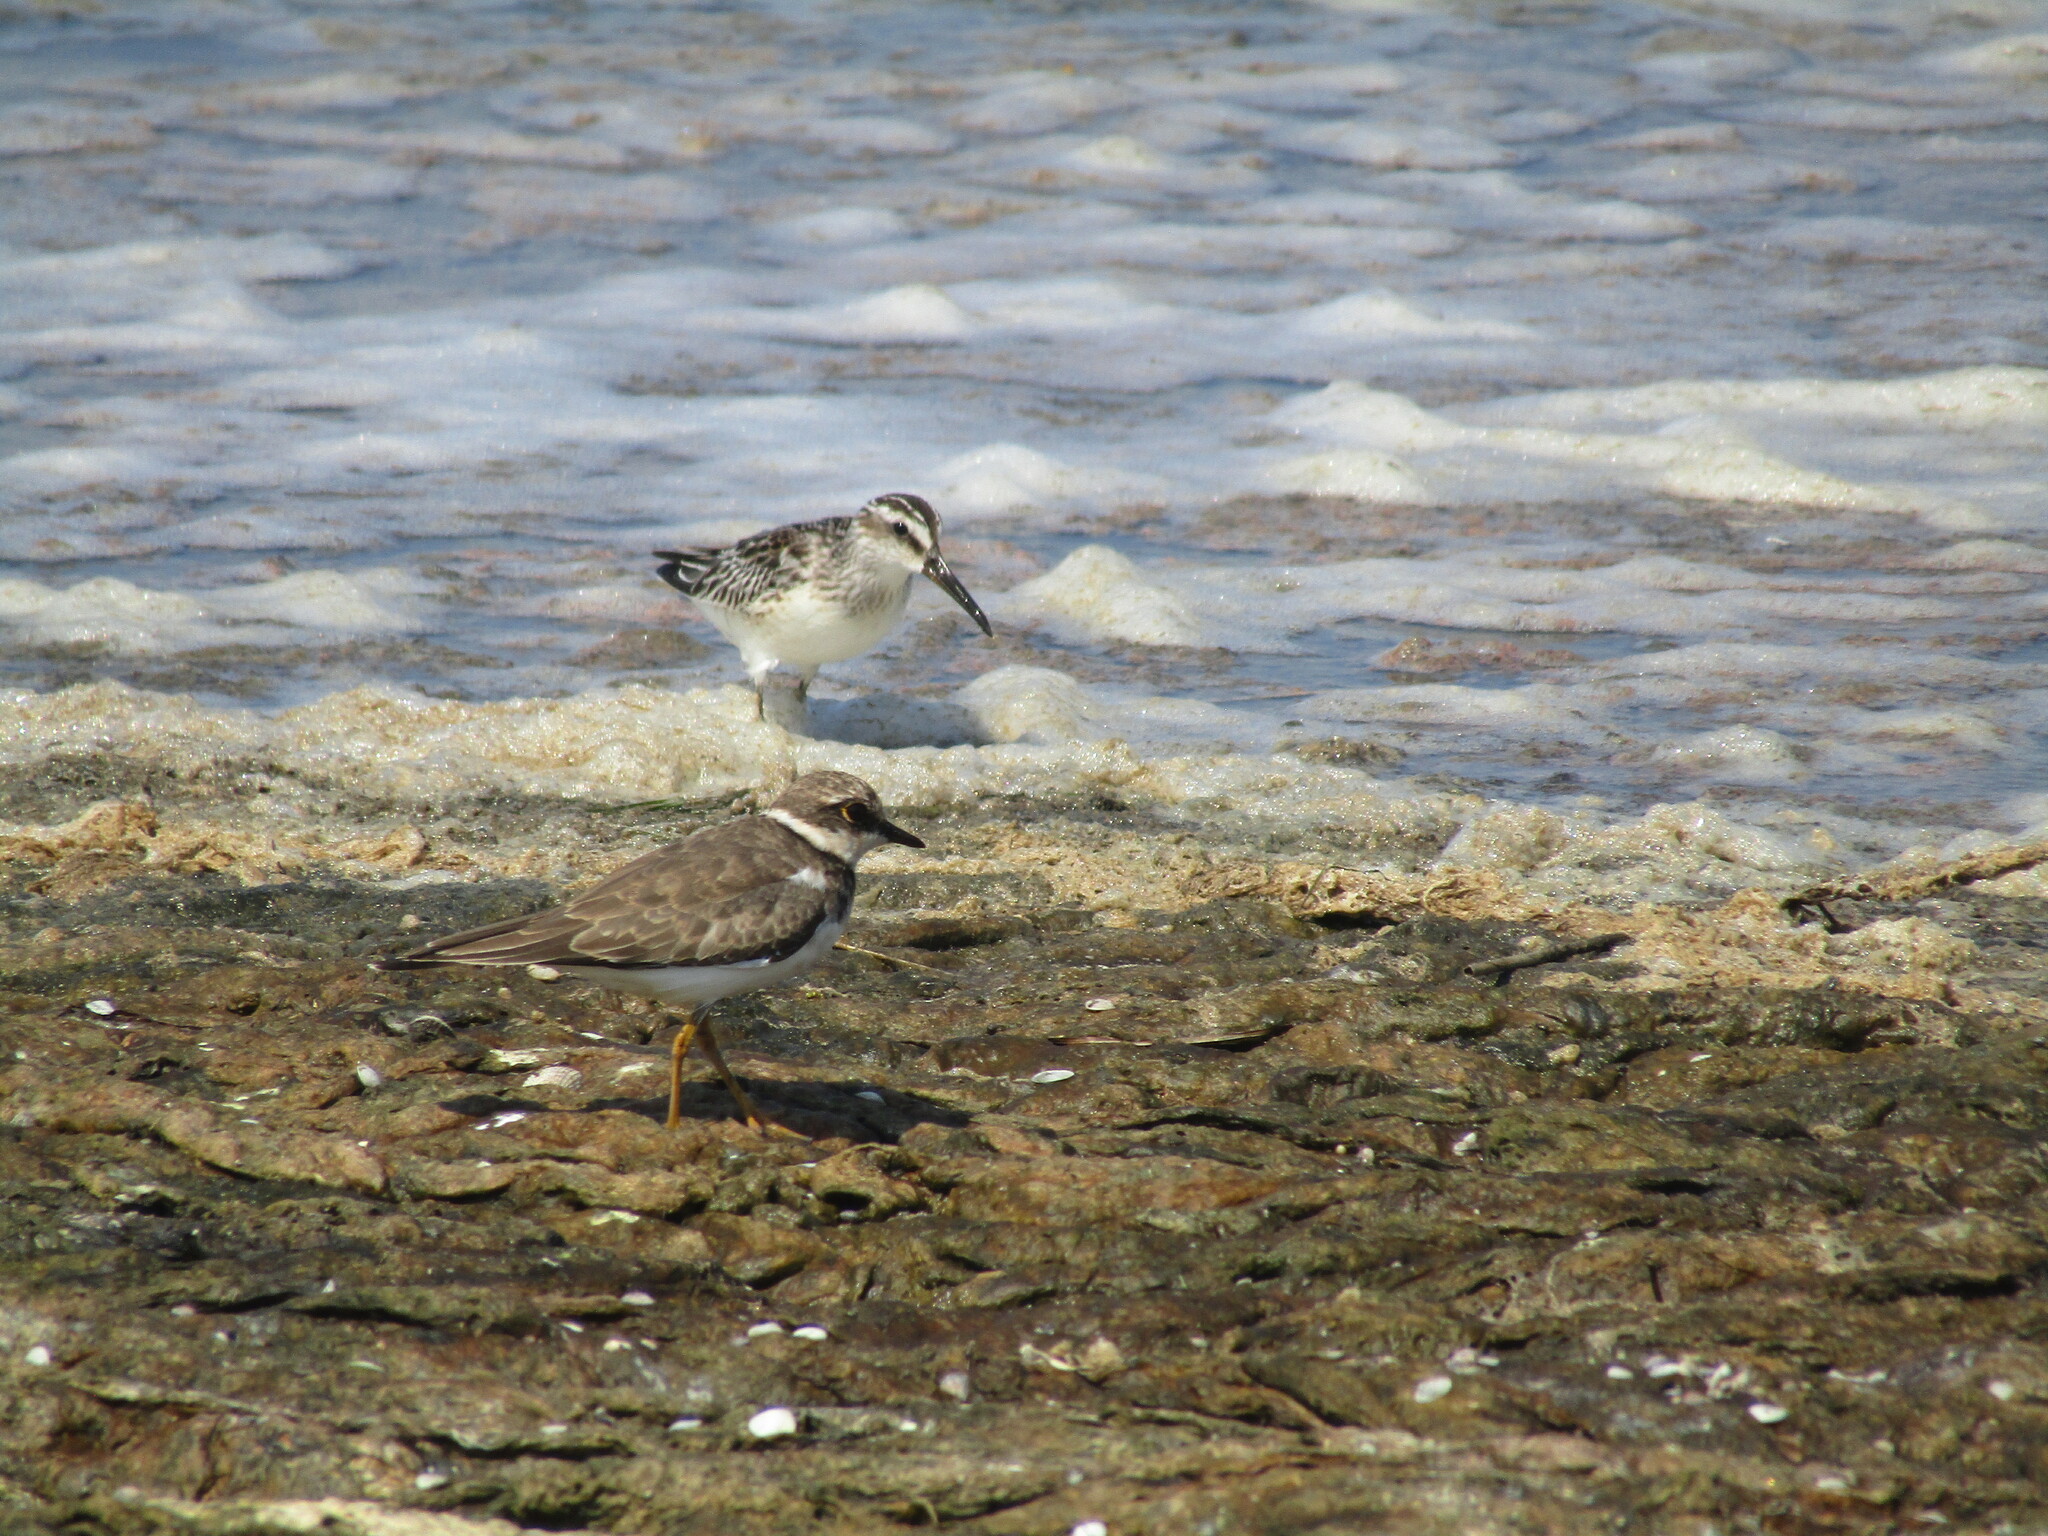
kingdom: Animalia
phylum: Chordata
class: Aves
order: Charadriiformes
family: Scolopacidae
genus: Calidris
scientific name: Calidris falcinellus
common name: Broad-billed sandpiper
